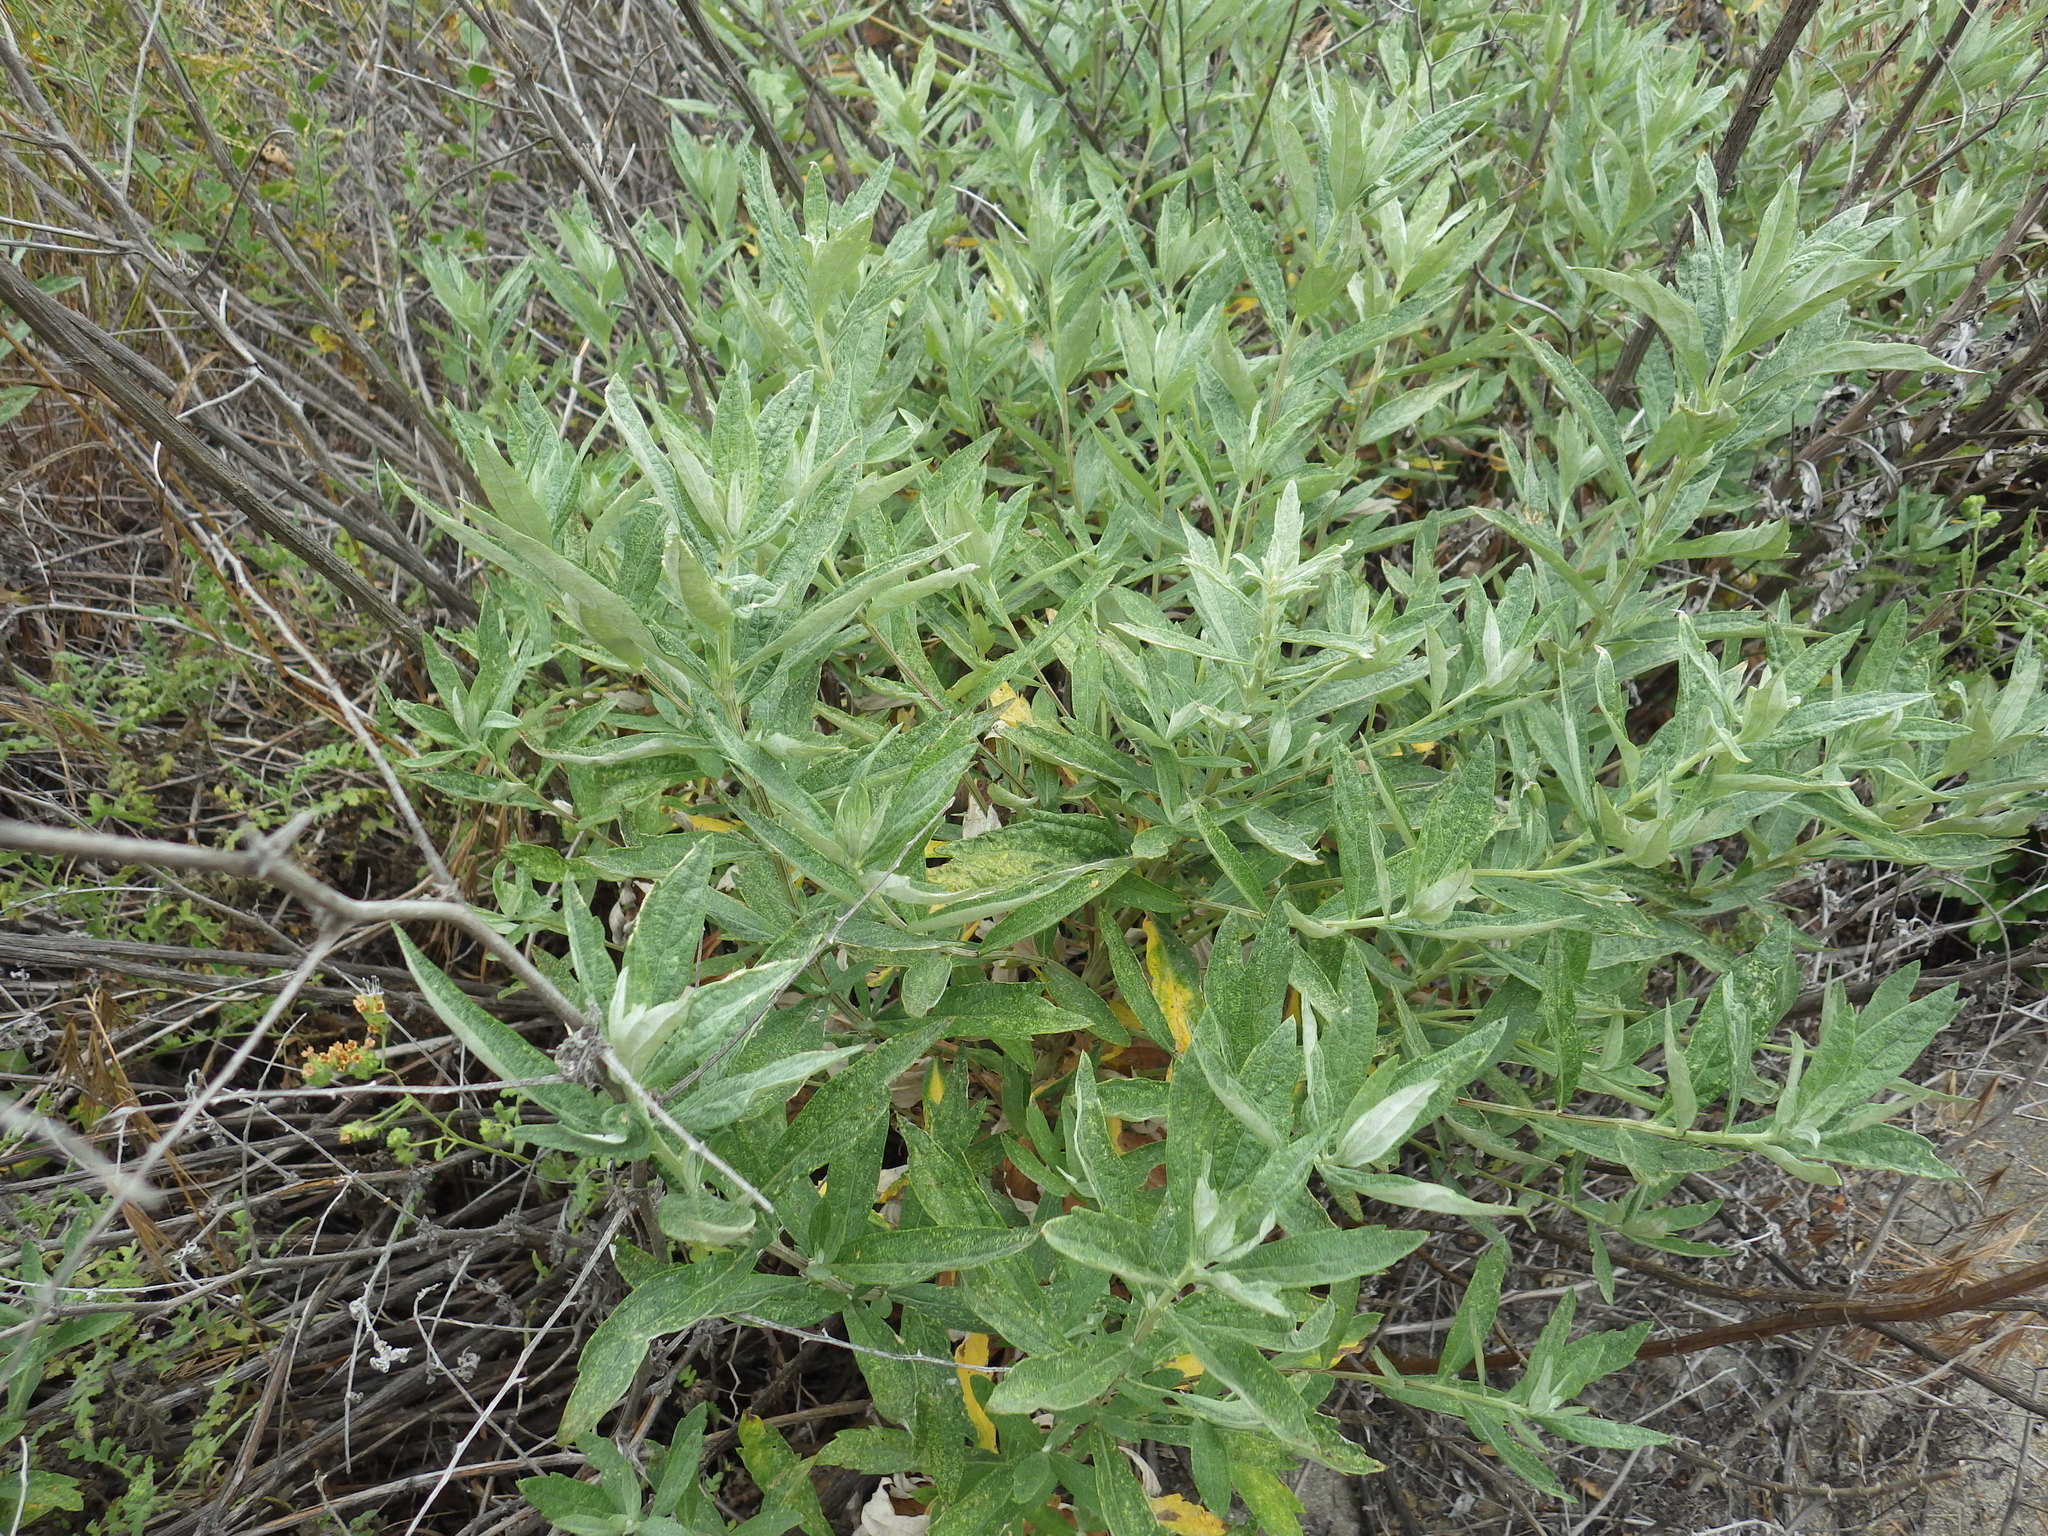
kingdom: Plantae
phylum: Tracheophyta
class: Magnoliopsida
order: Asterales
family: Asteraceae
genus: Artemisia
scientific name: Artemisia douglasiana
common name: Northwest mugwort
